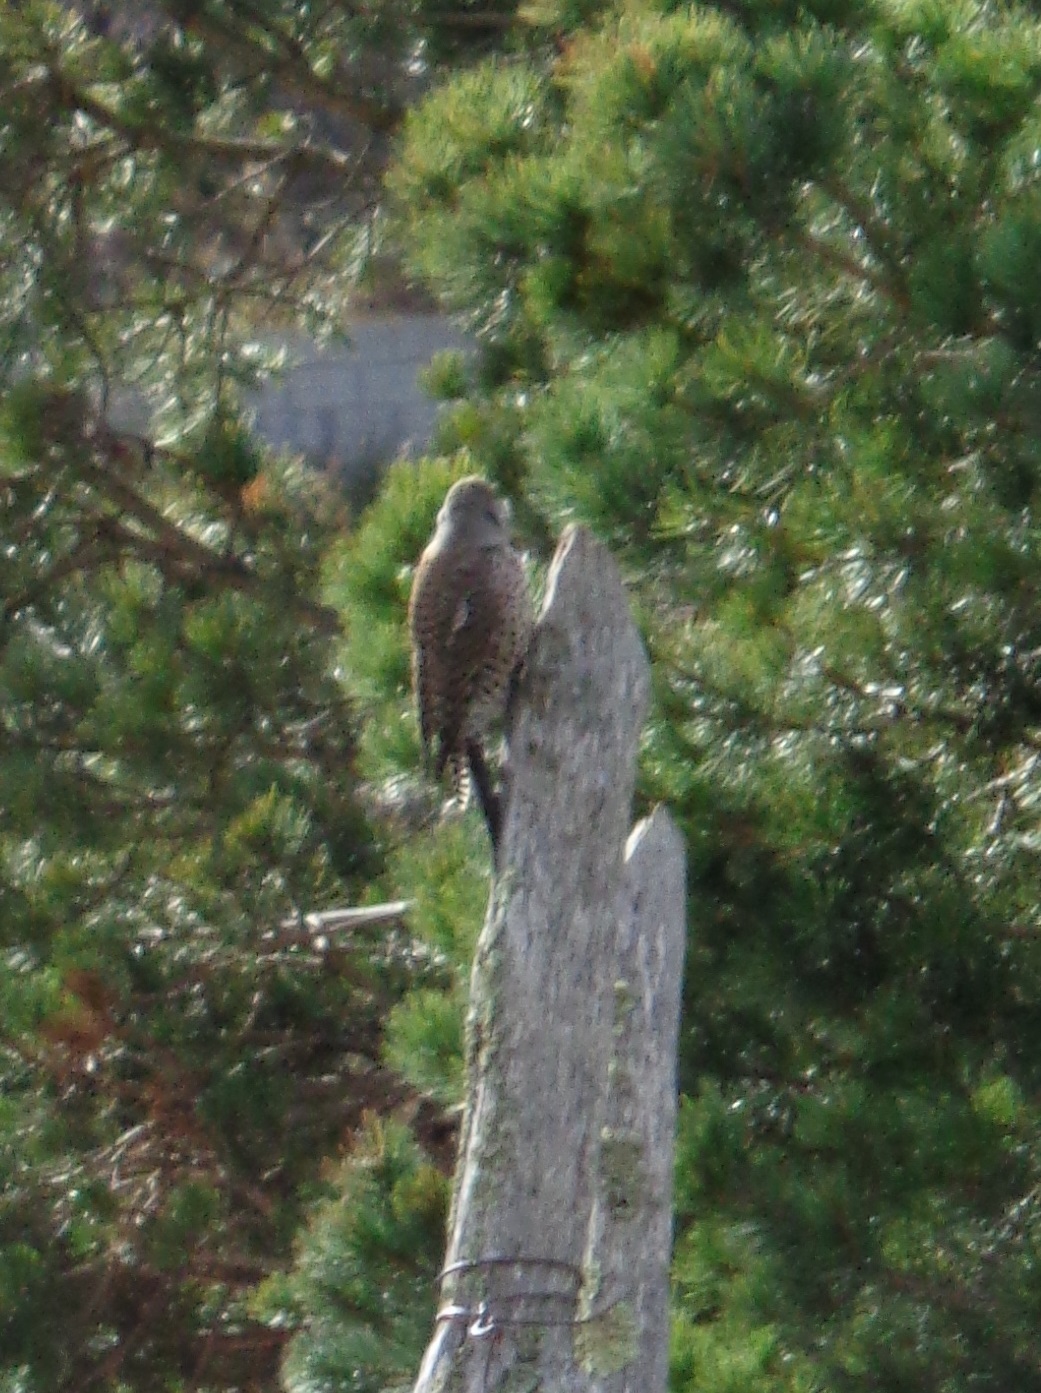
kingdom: Animalia
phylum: Chordata
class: Aves
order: Piciformes
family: Picidae
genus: Colaptes
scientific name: Colaptes auratus
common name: Northern flicker
